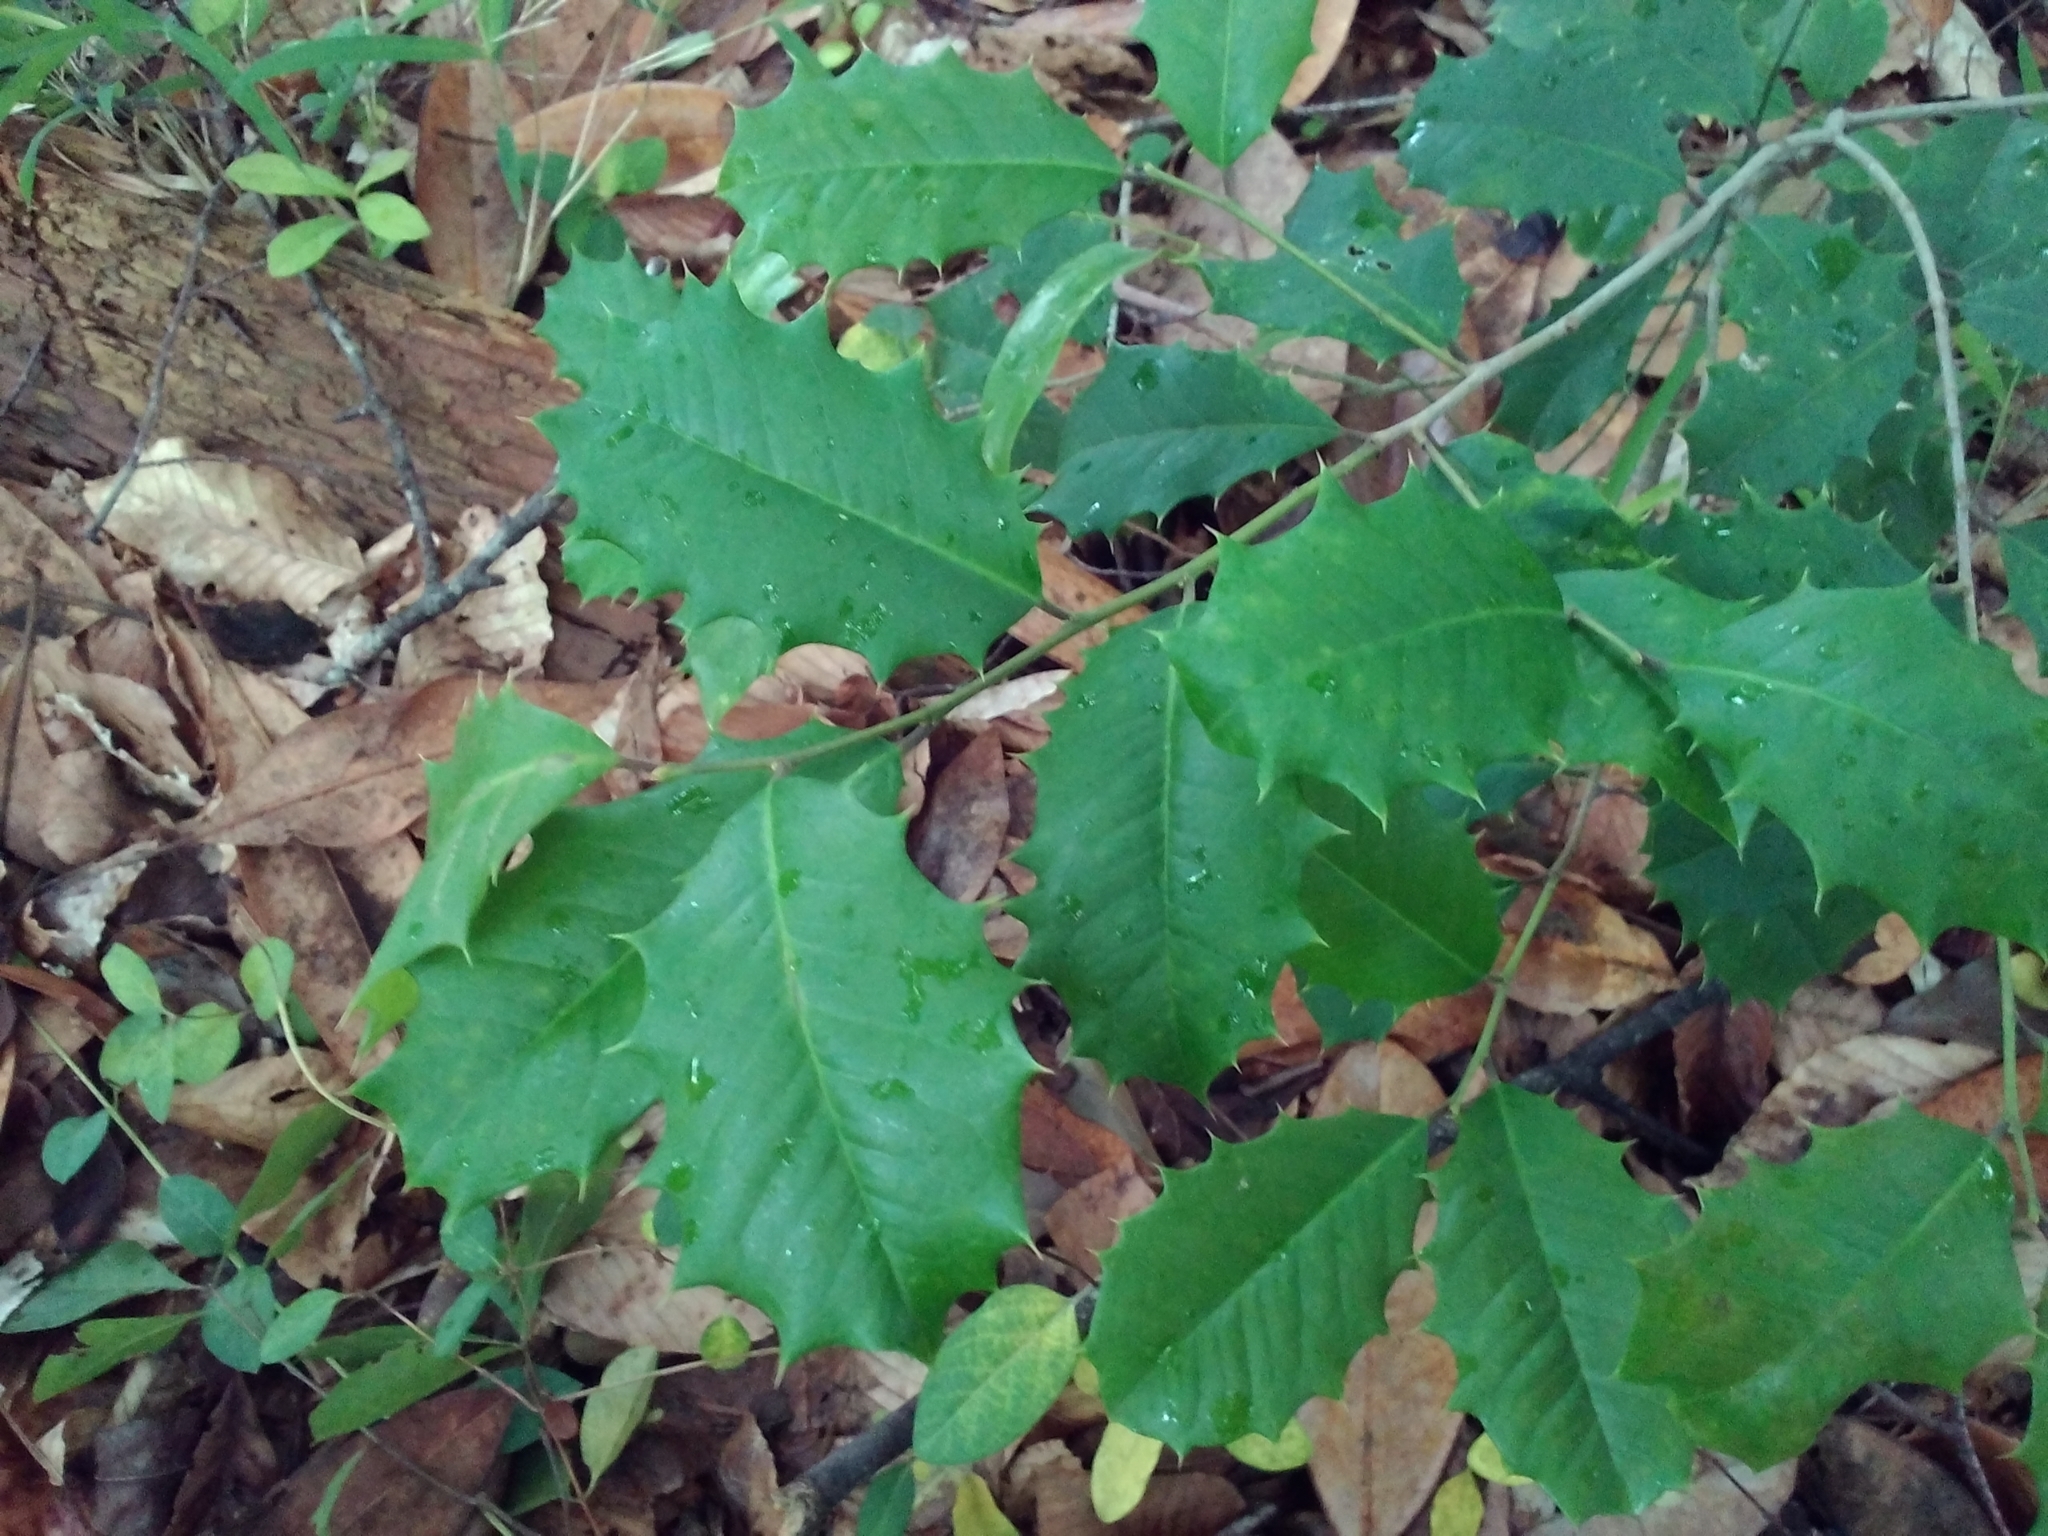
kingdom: Plantae
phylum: Tracheophyta
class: Magnoliopsida
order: Aquifoliales
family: Aquifoliaceae
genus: Ilex
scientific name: Ilex opaca
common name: American holly
